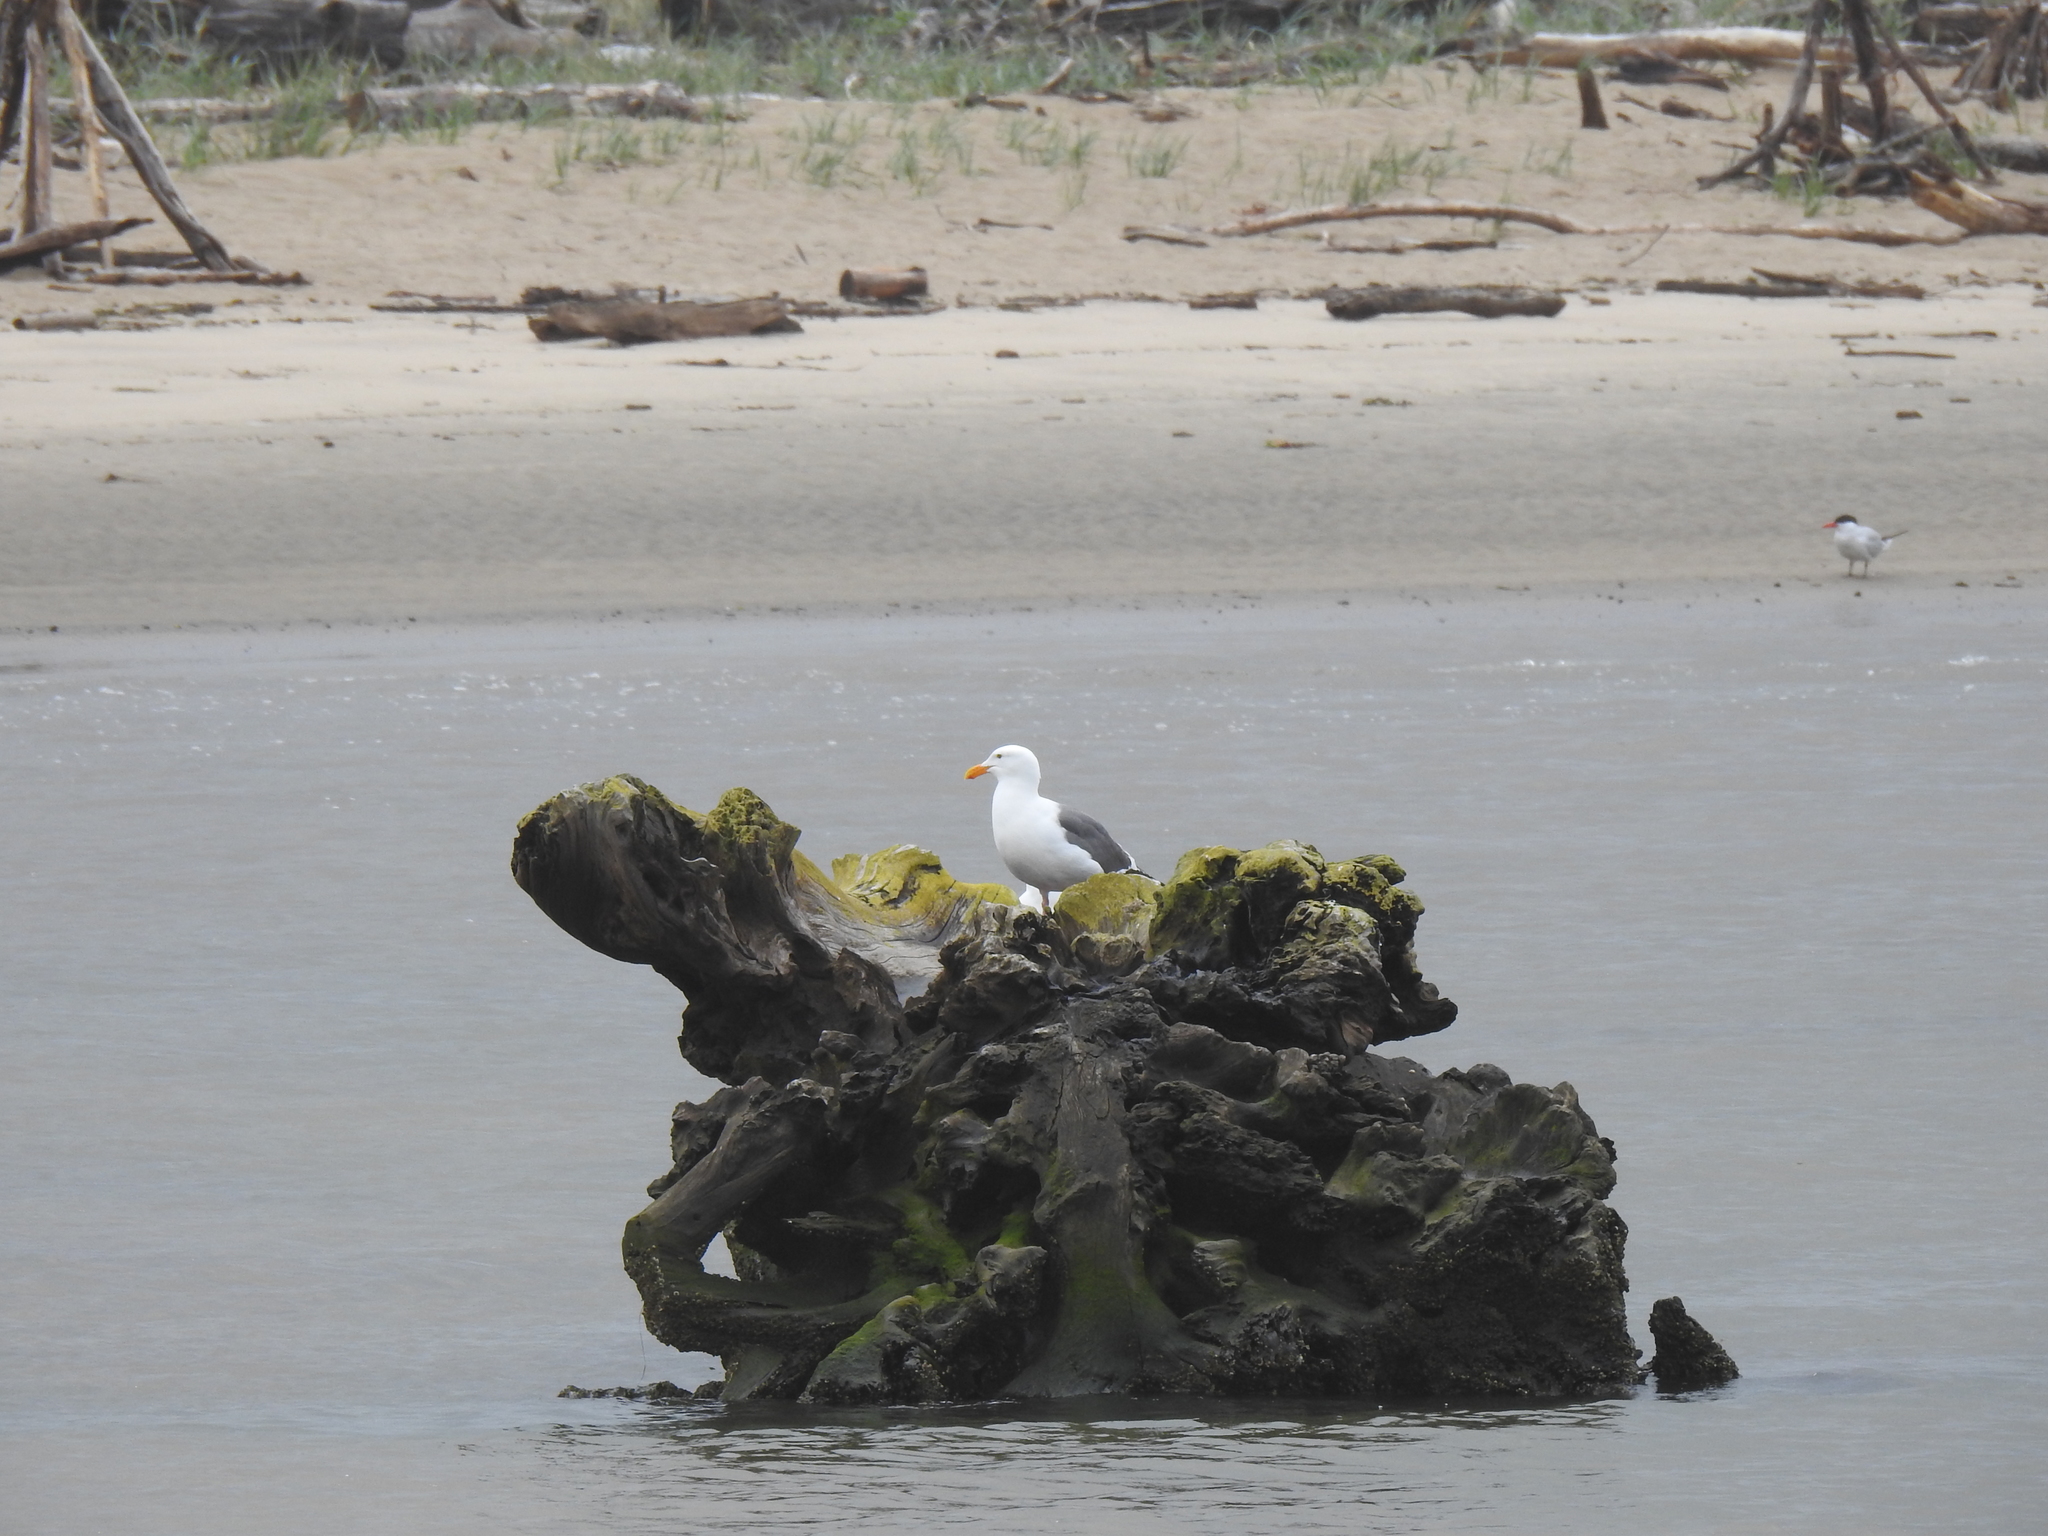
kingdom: Animalia
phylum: Chordata
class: Aves
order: Charadriiformes
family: Laridae
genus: Larus
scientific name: Larus occidentalis
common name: Western gull
